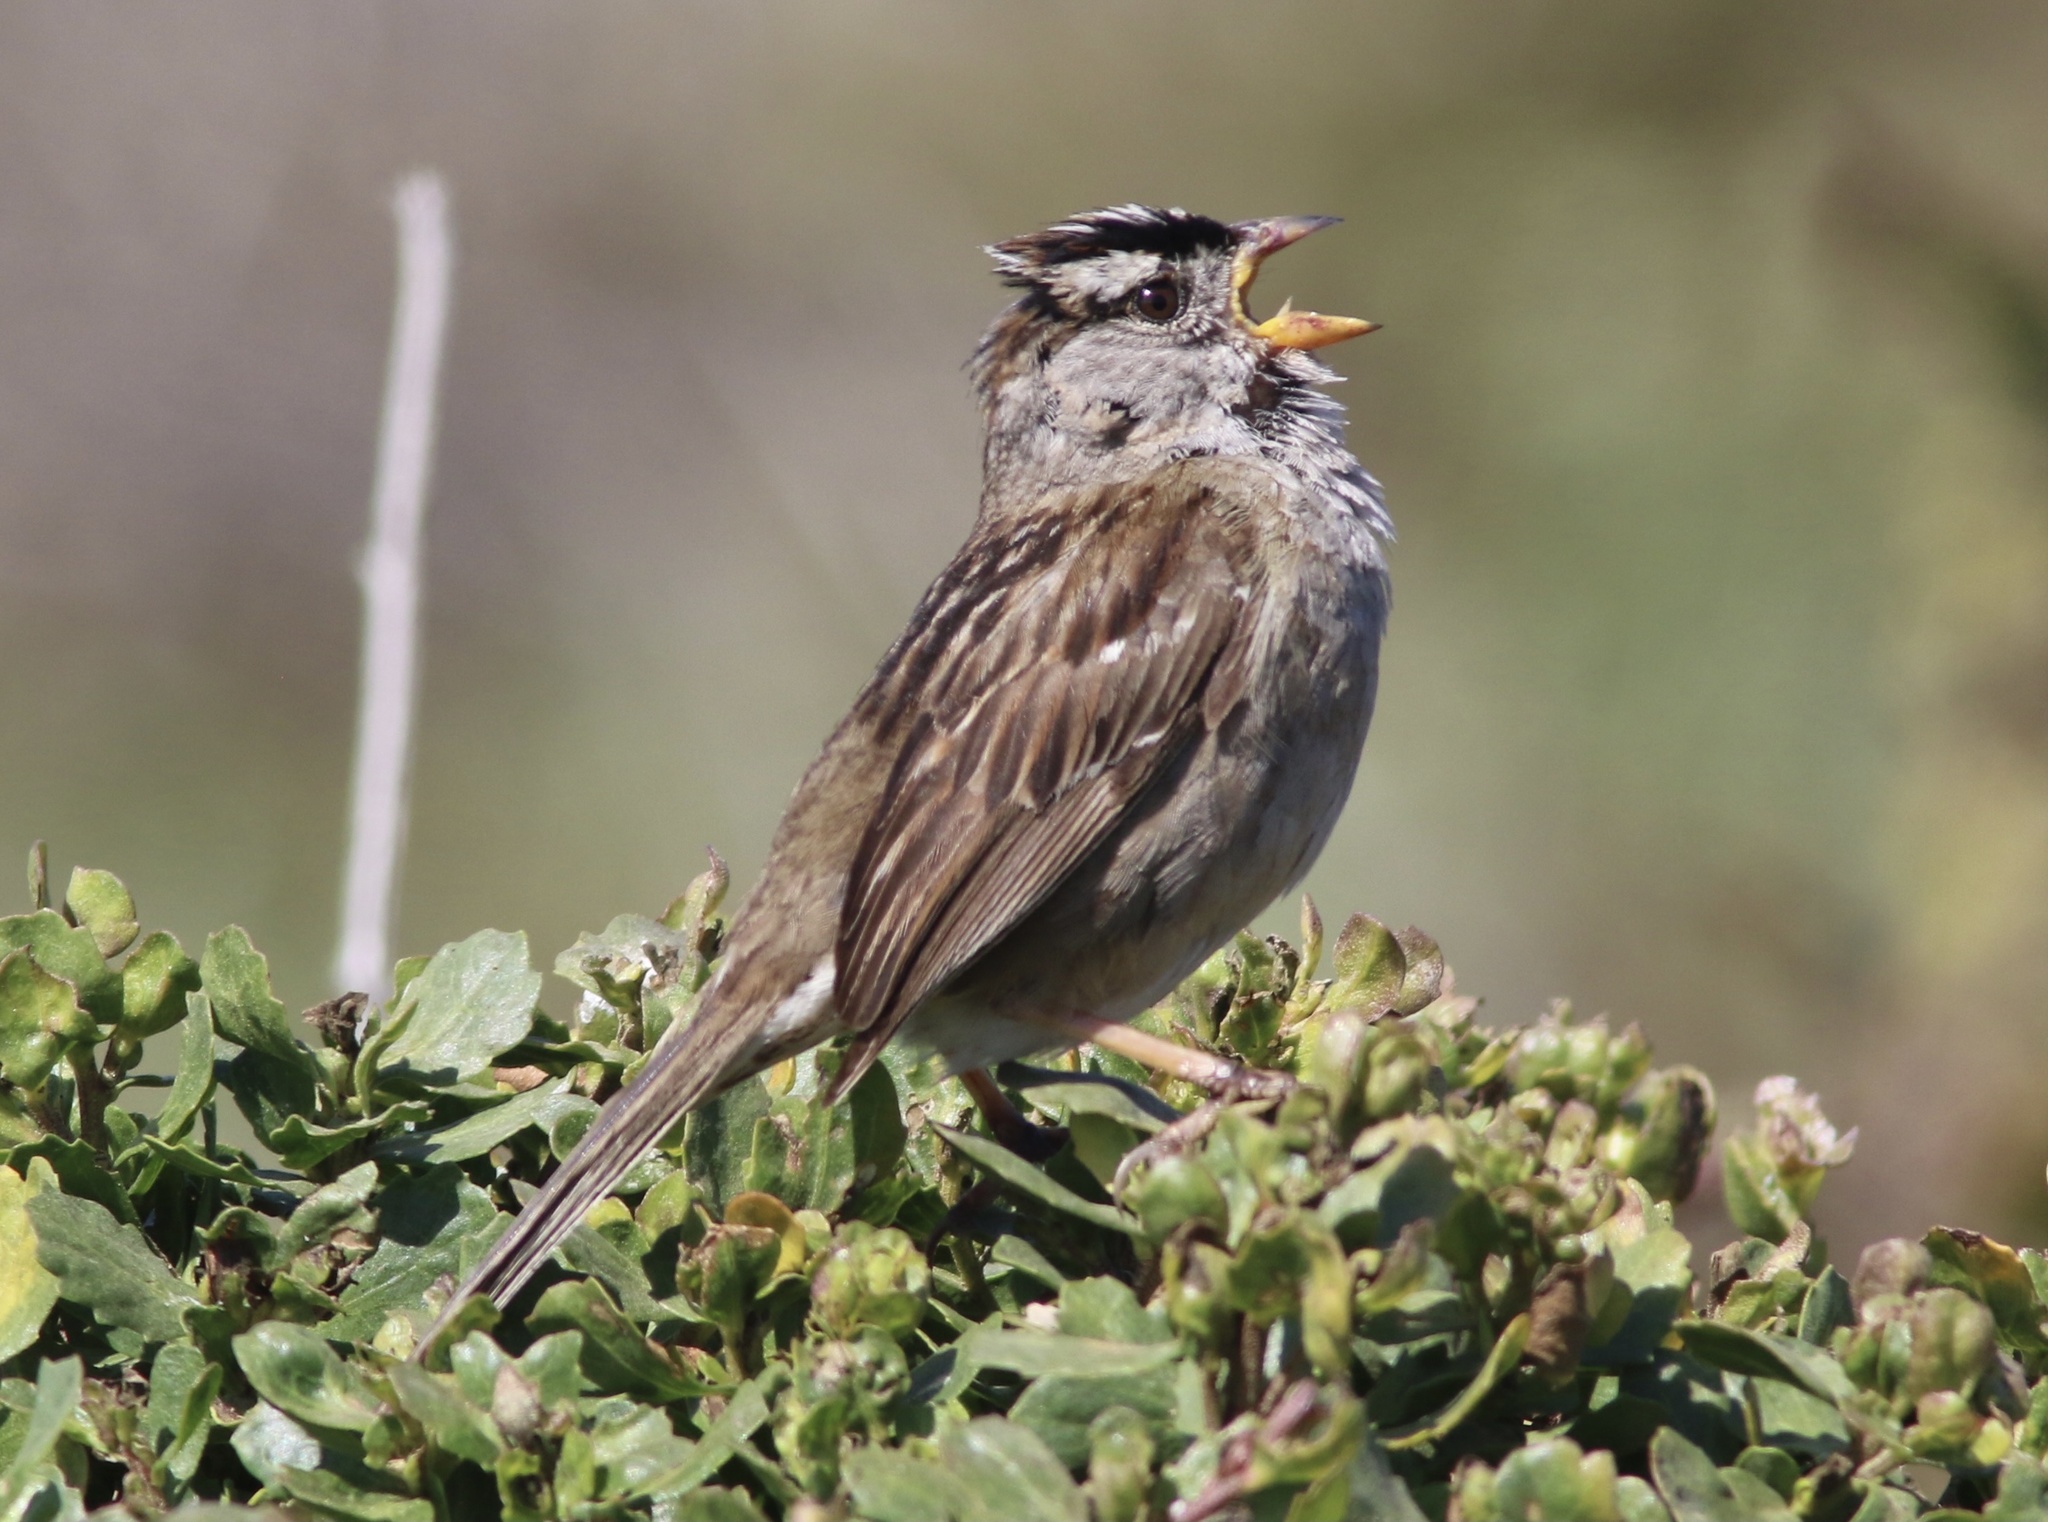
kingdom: Animalia
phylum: Chordata
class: Aves
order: Passeriformes
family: Passerellidae
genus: Zonotrichia
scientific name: Zonotrichia leucophrys
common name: White-crowned sparrow
